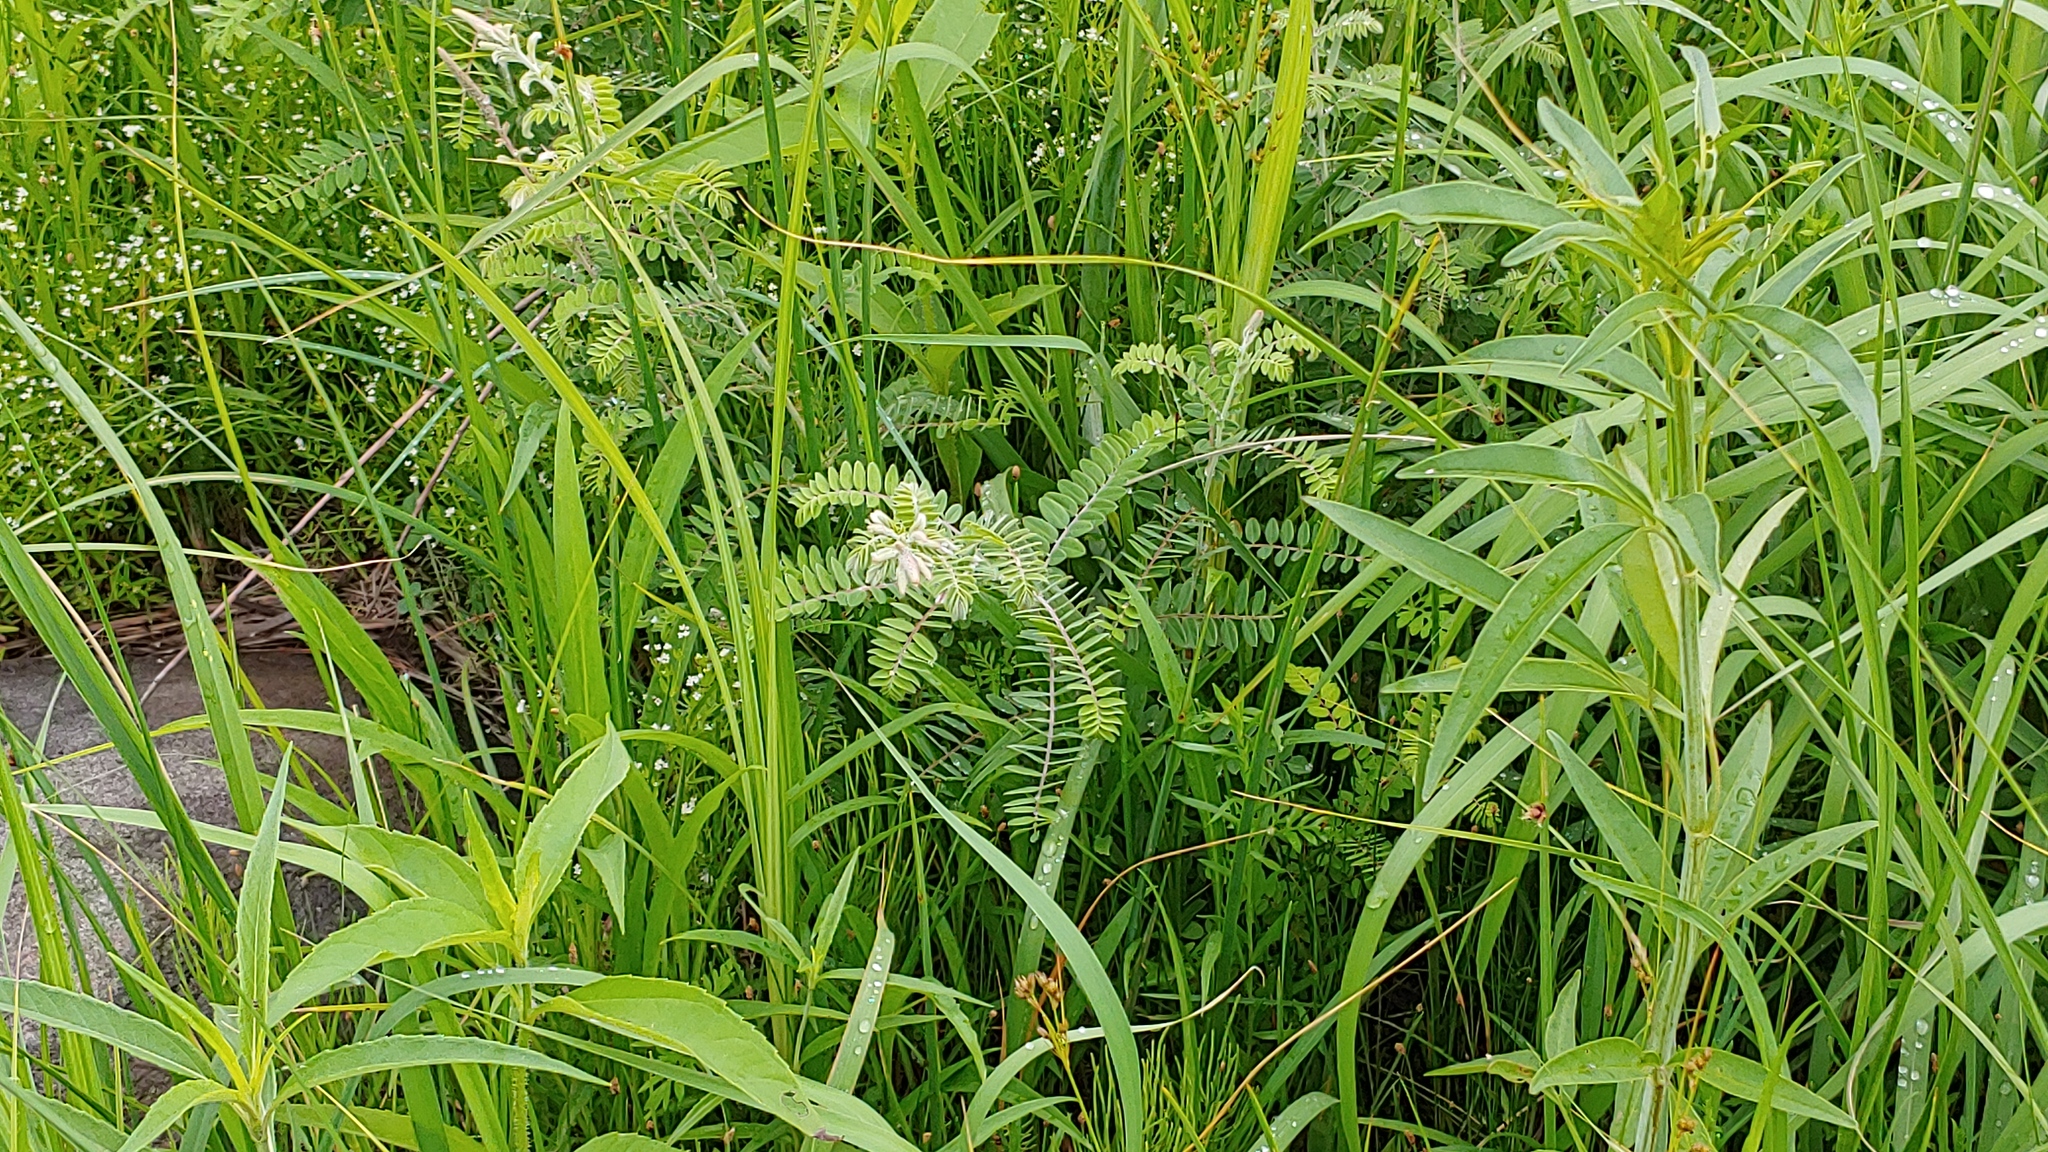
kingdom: Plantae
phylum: Tracheophyta
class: Magnoliopsida
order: Fabales
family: Fabaceae
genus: Amorpha
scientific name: Amorpha canescens
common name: Leadplant
